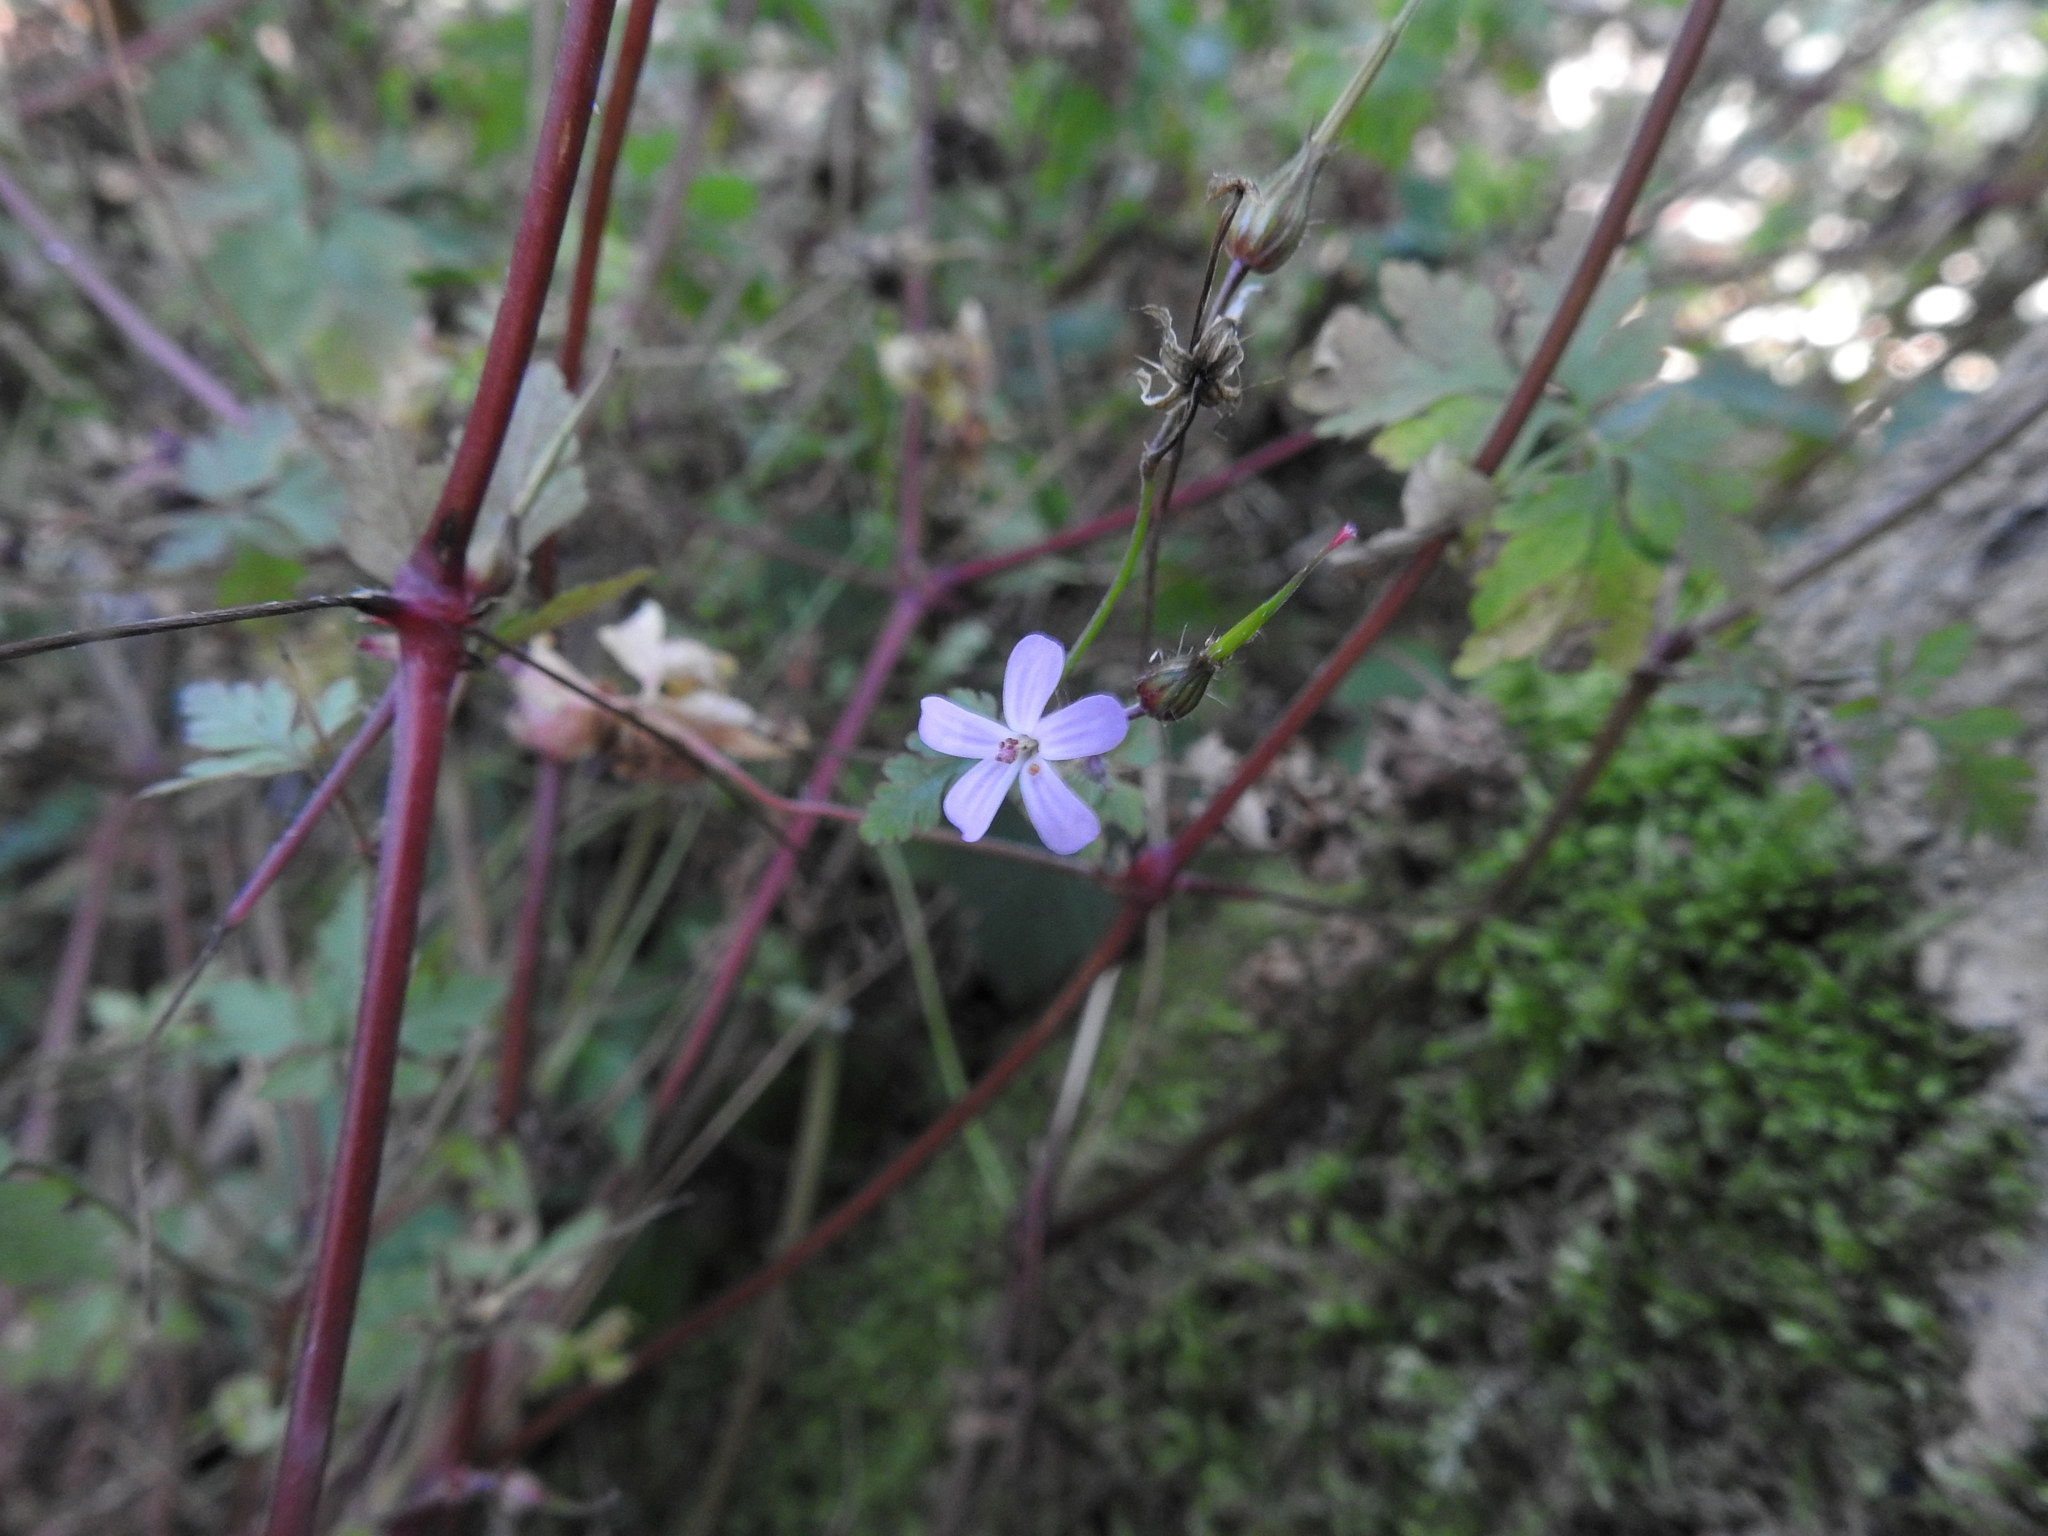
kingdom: Plantae
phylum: Tracheophyta
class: Magnoliopsida
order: Geraniales
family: Geraniaceae
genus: Geranium
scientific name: Geranium robertianum
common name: Herb-robert
